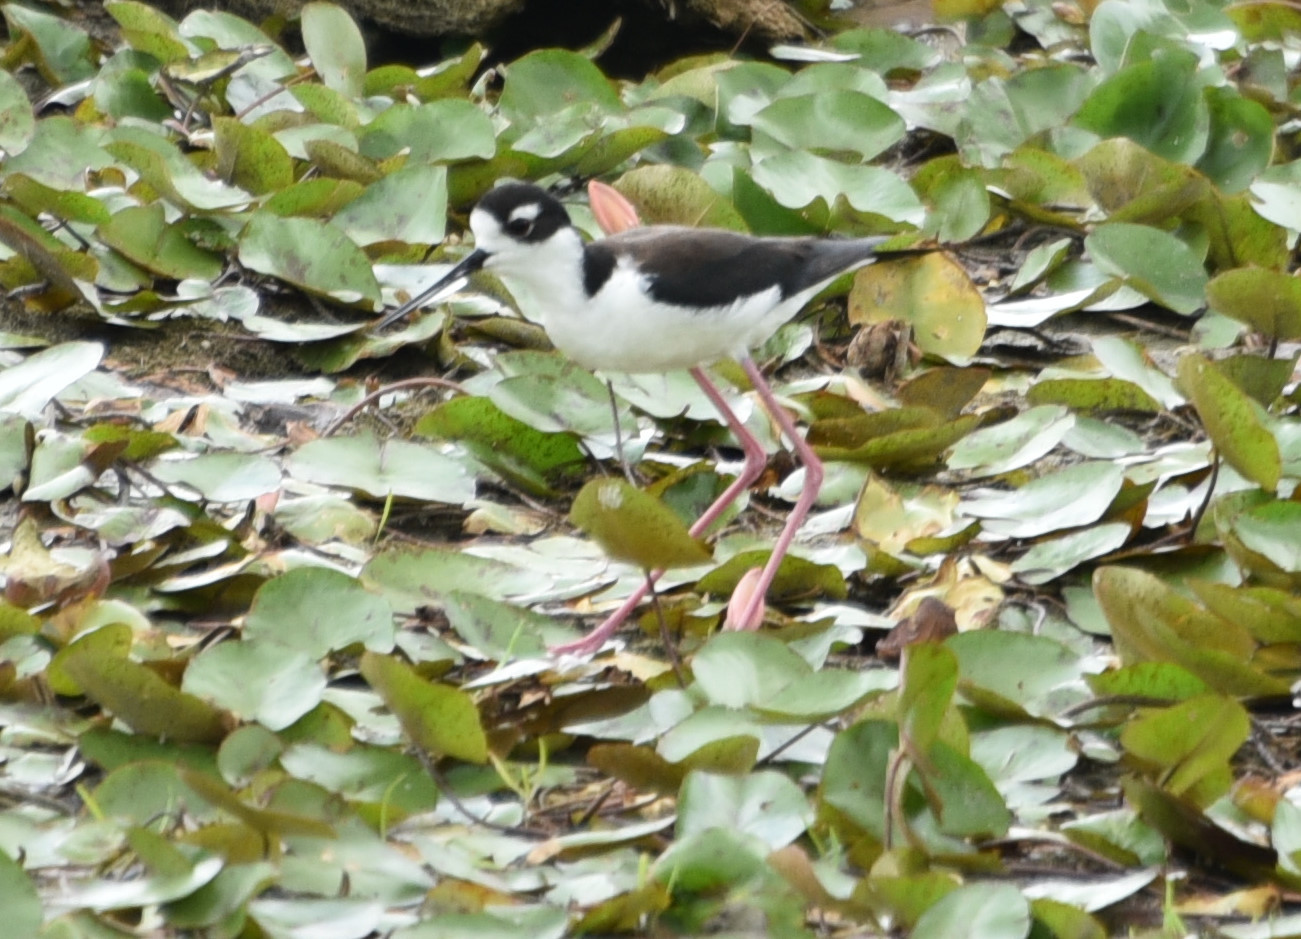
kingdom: Animalia
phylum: Chordata
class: Aves
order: Charadriiformes
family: Recurvirostridae
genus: Himantopus
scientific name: Himantopus mexicanus
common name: Black-necked stilt
